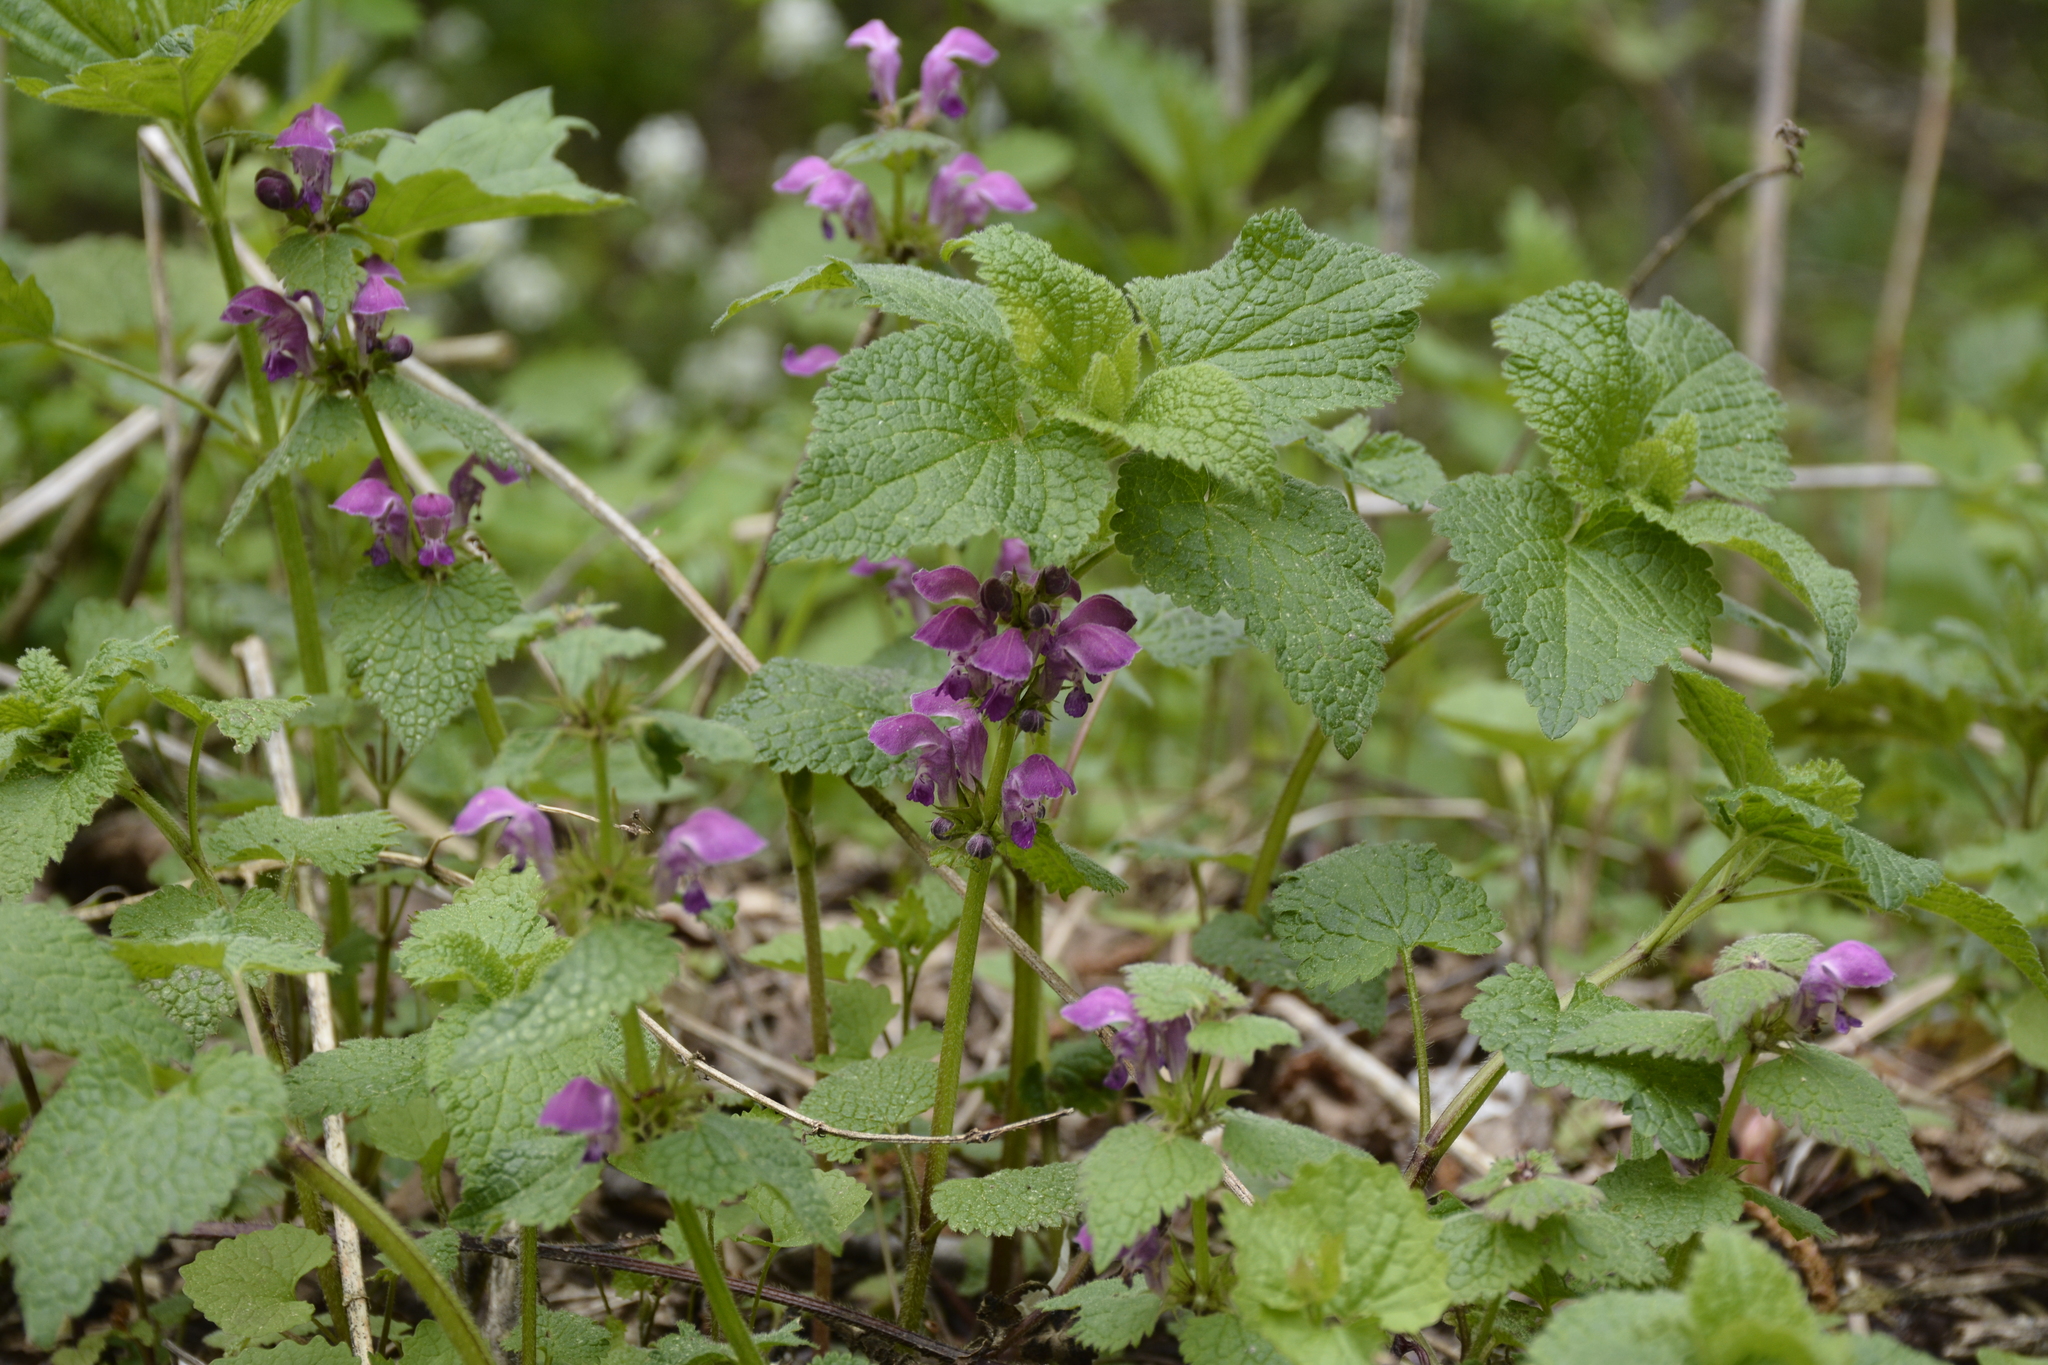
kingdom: Plantae
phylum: Tracheophyta
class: Magnoliopsida
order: Lamiales
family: Lamiaceae
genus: Lamium
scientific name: Lamium maculatum
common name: Spotted dead-nettle
